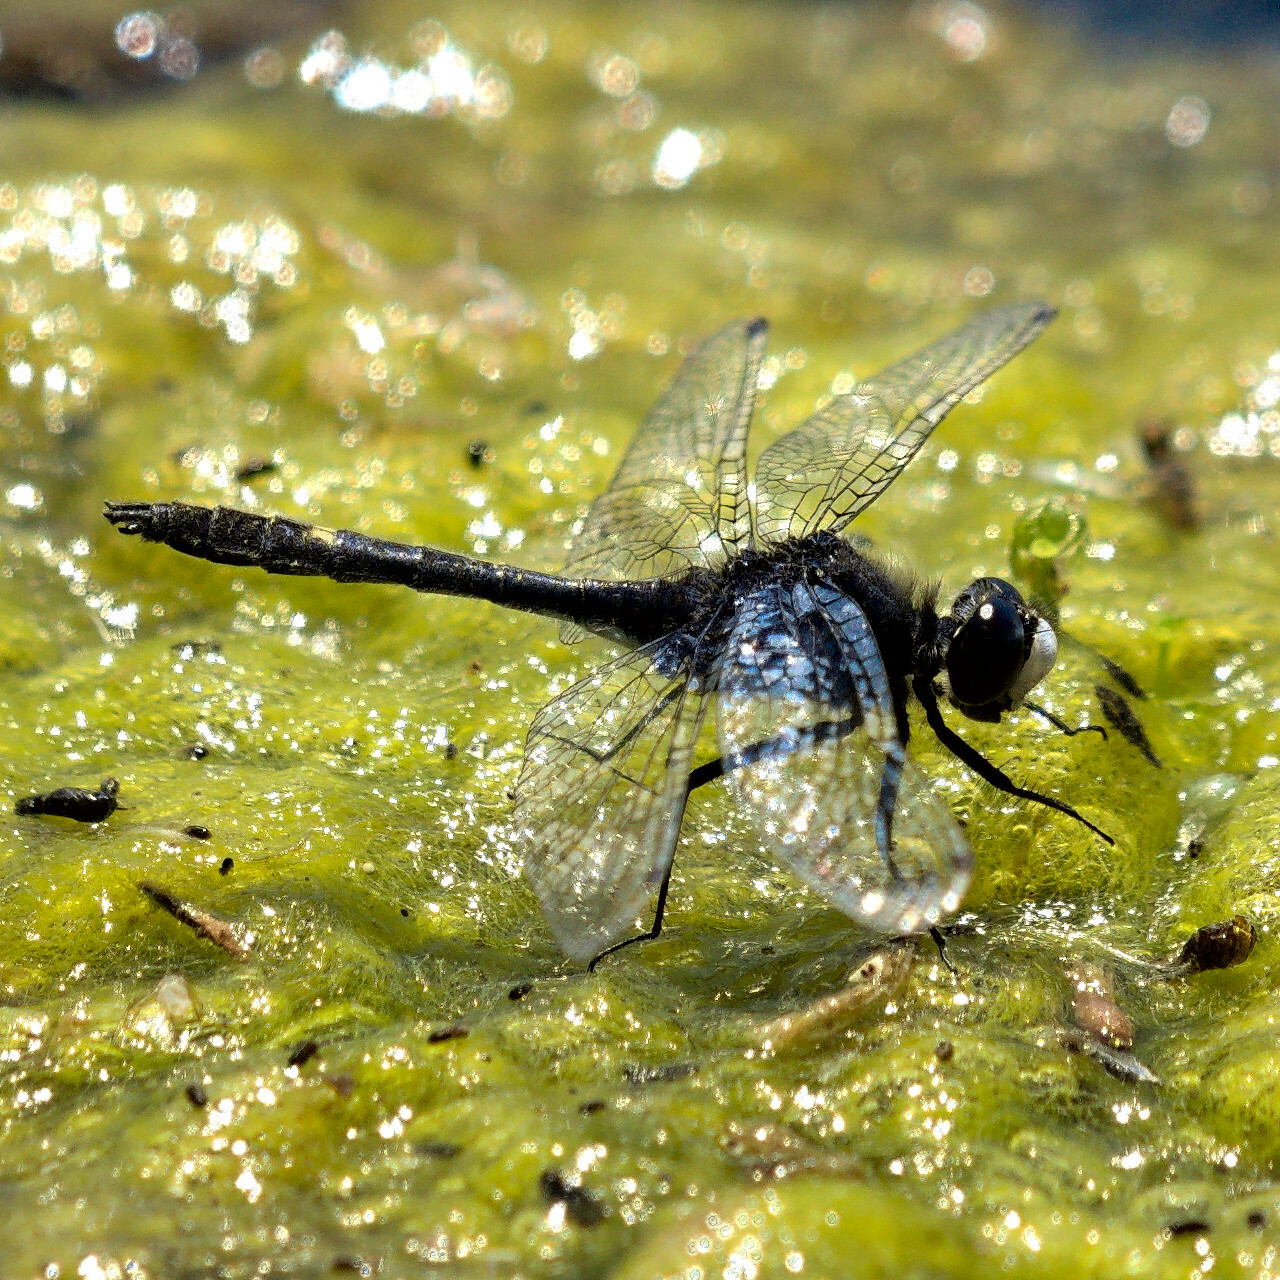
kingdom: Animalia
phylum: Arthropoda
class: Insecta
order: Odonata
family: Libellulidae
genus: Leucorrhinia
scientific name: Leucorrhinia intacta
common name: Dot-tailed whiteface
